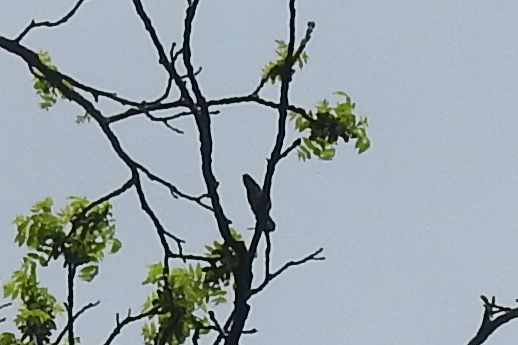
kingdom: Animalia
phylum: Chordata
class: Aves
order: Apodiformes
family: Trochilidae
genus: Archilochus
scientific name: Archilochus colubris
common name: Ruby-throated hummingbird
